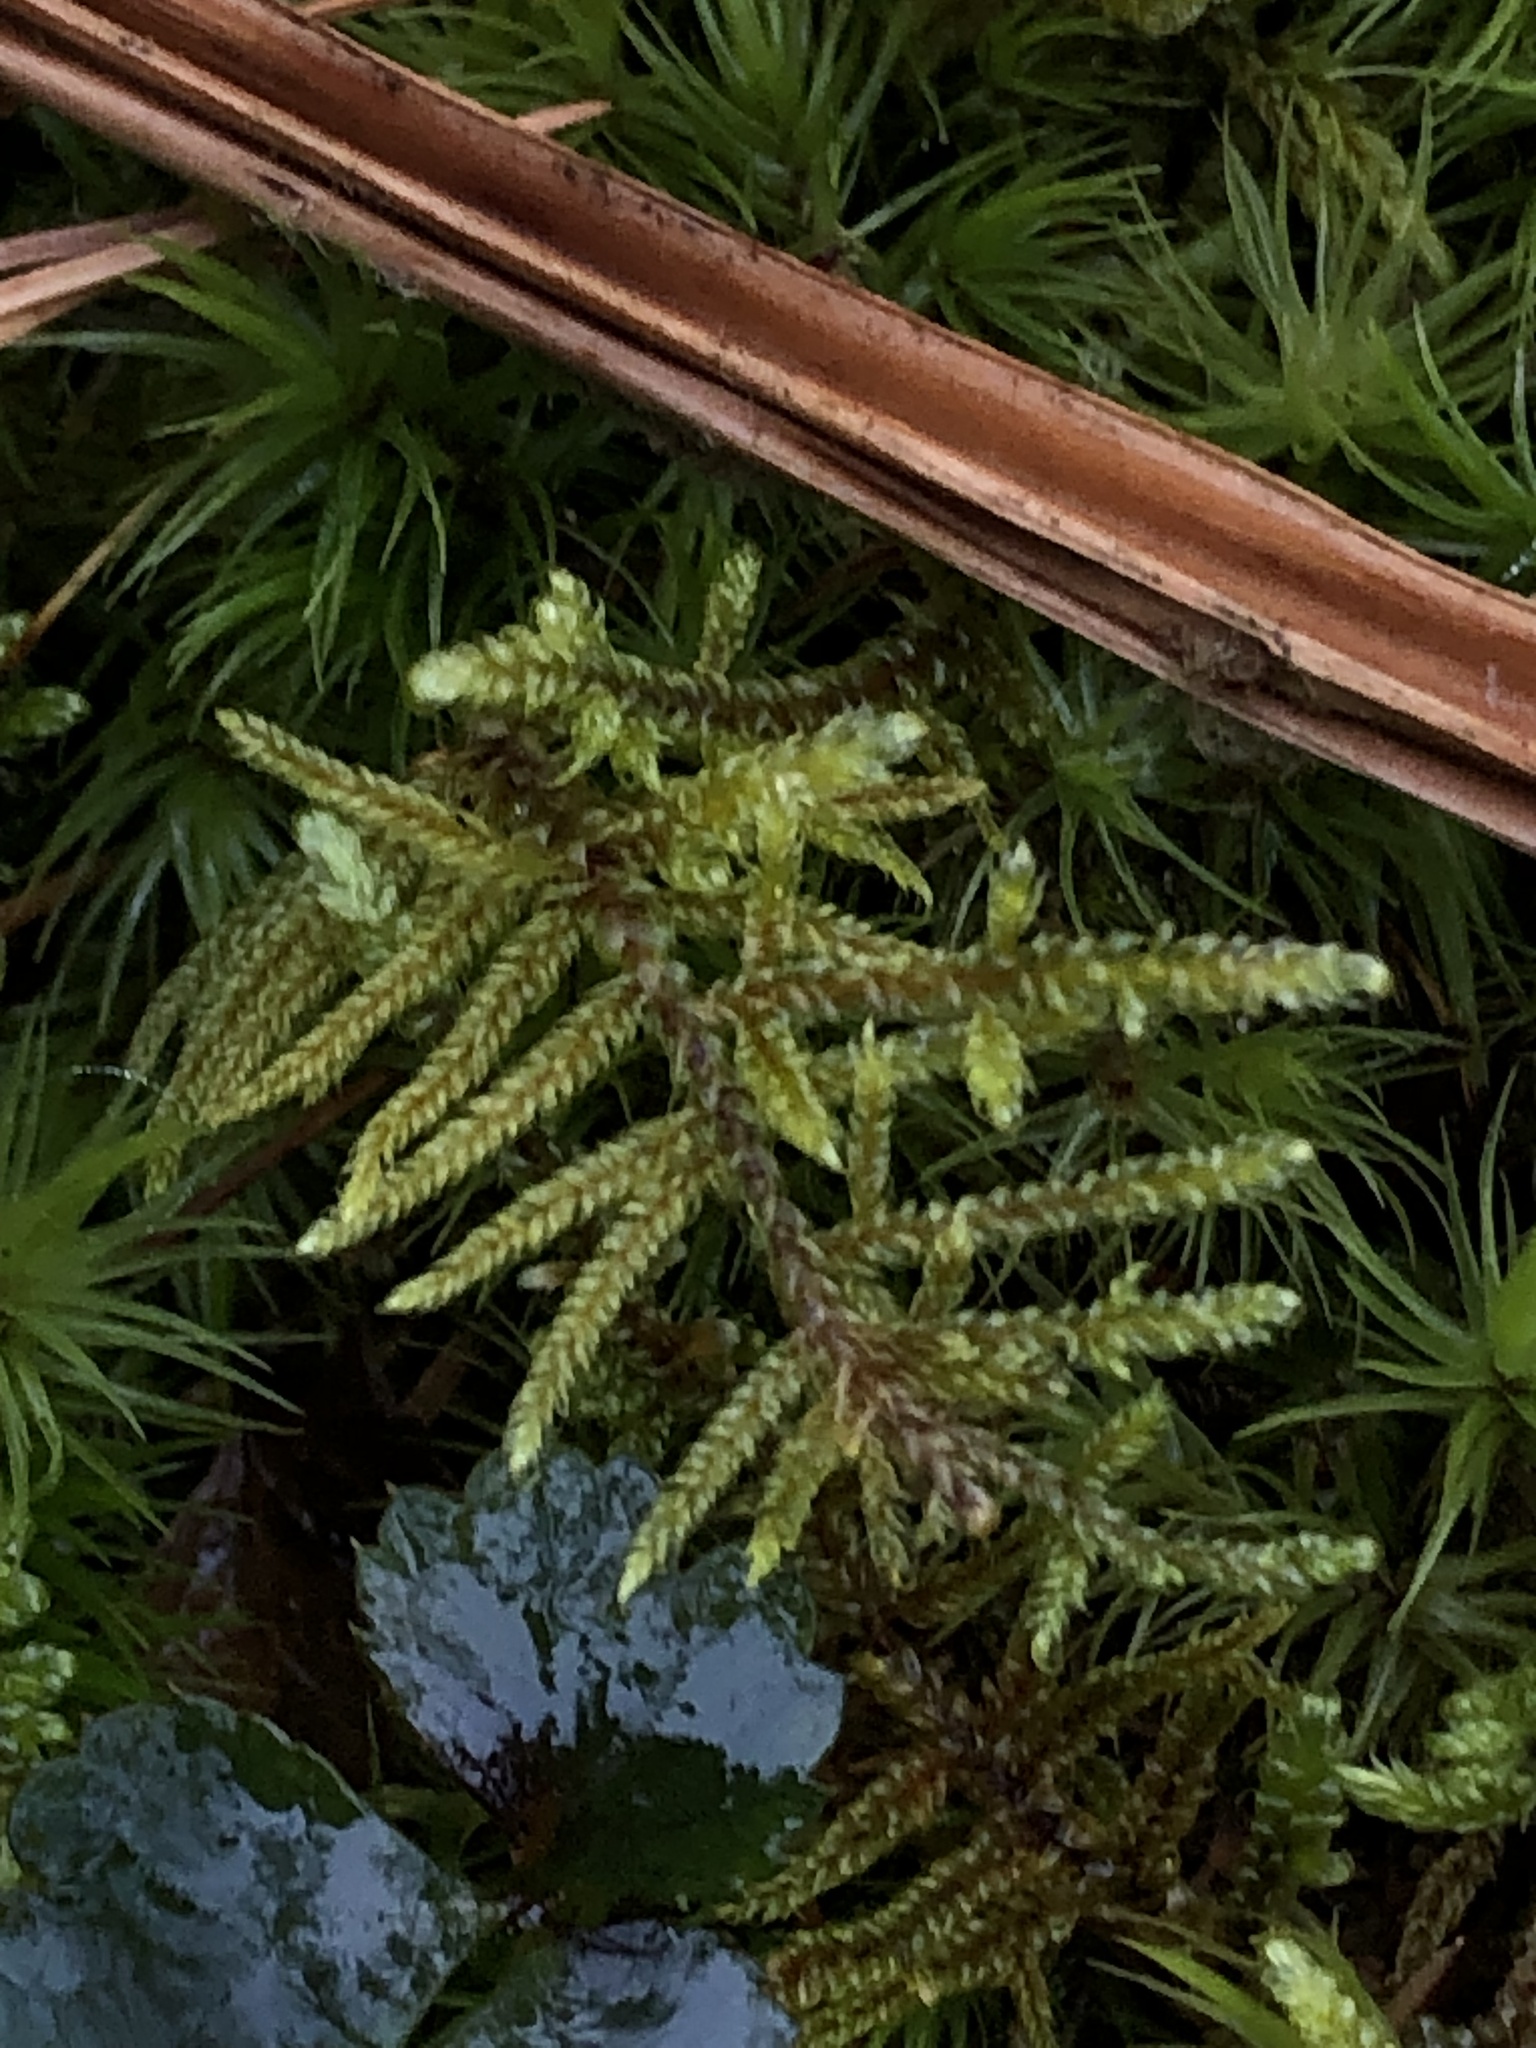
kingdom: Plantae
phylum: Bryophyta
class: Bryopsida
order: Hypnales
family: Hylocomiaceae
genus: Pleurozium
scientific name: Pleurozium schreberi
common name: Red-stemmed feather moss
